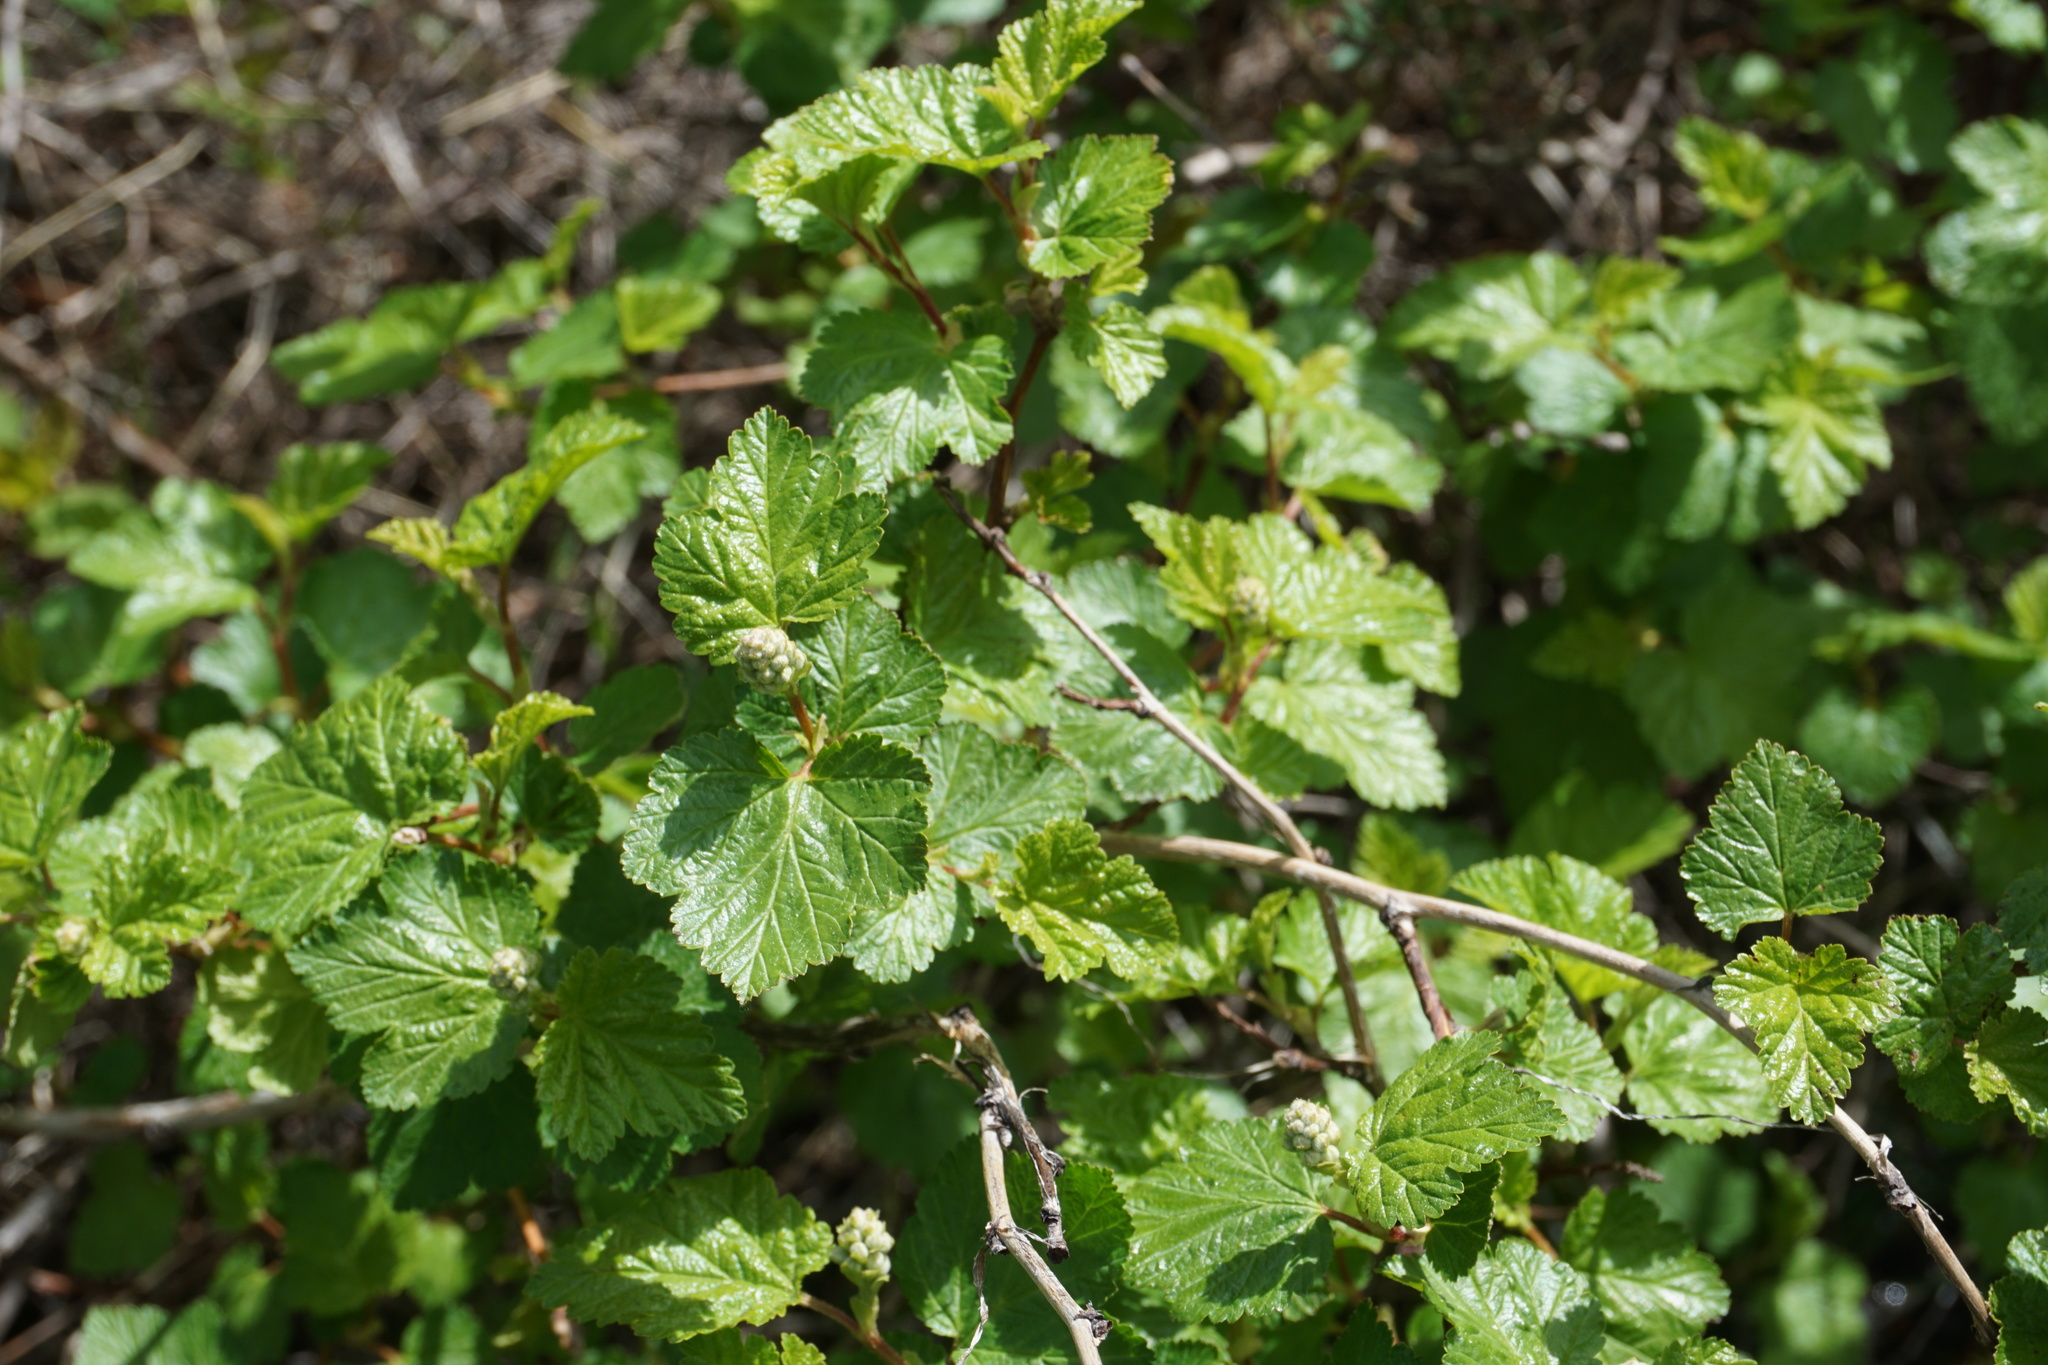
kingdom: Plantae
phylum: Tracheophyta
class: Magnoliopsida
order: Rosales
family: Rosaceae
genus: Physocarpus
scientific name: Physocarpus malvaceus
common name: Mallow ninebark
